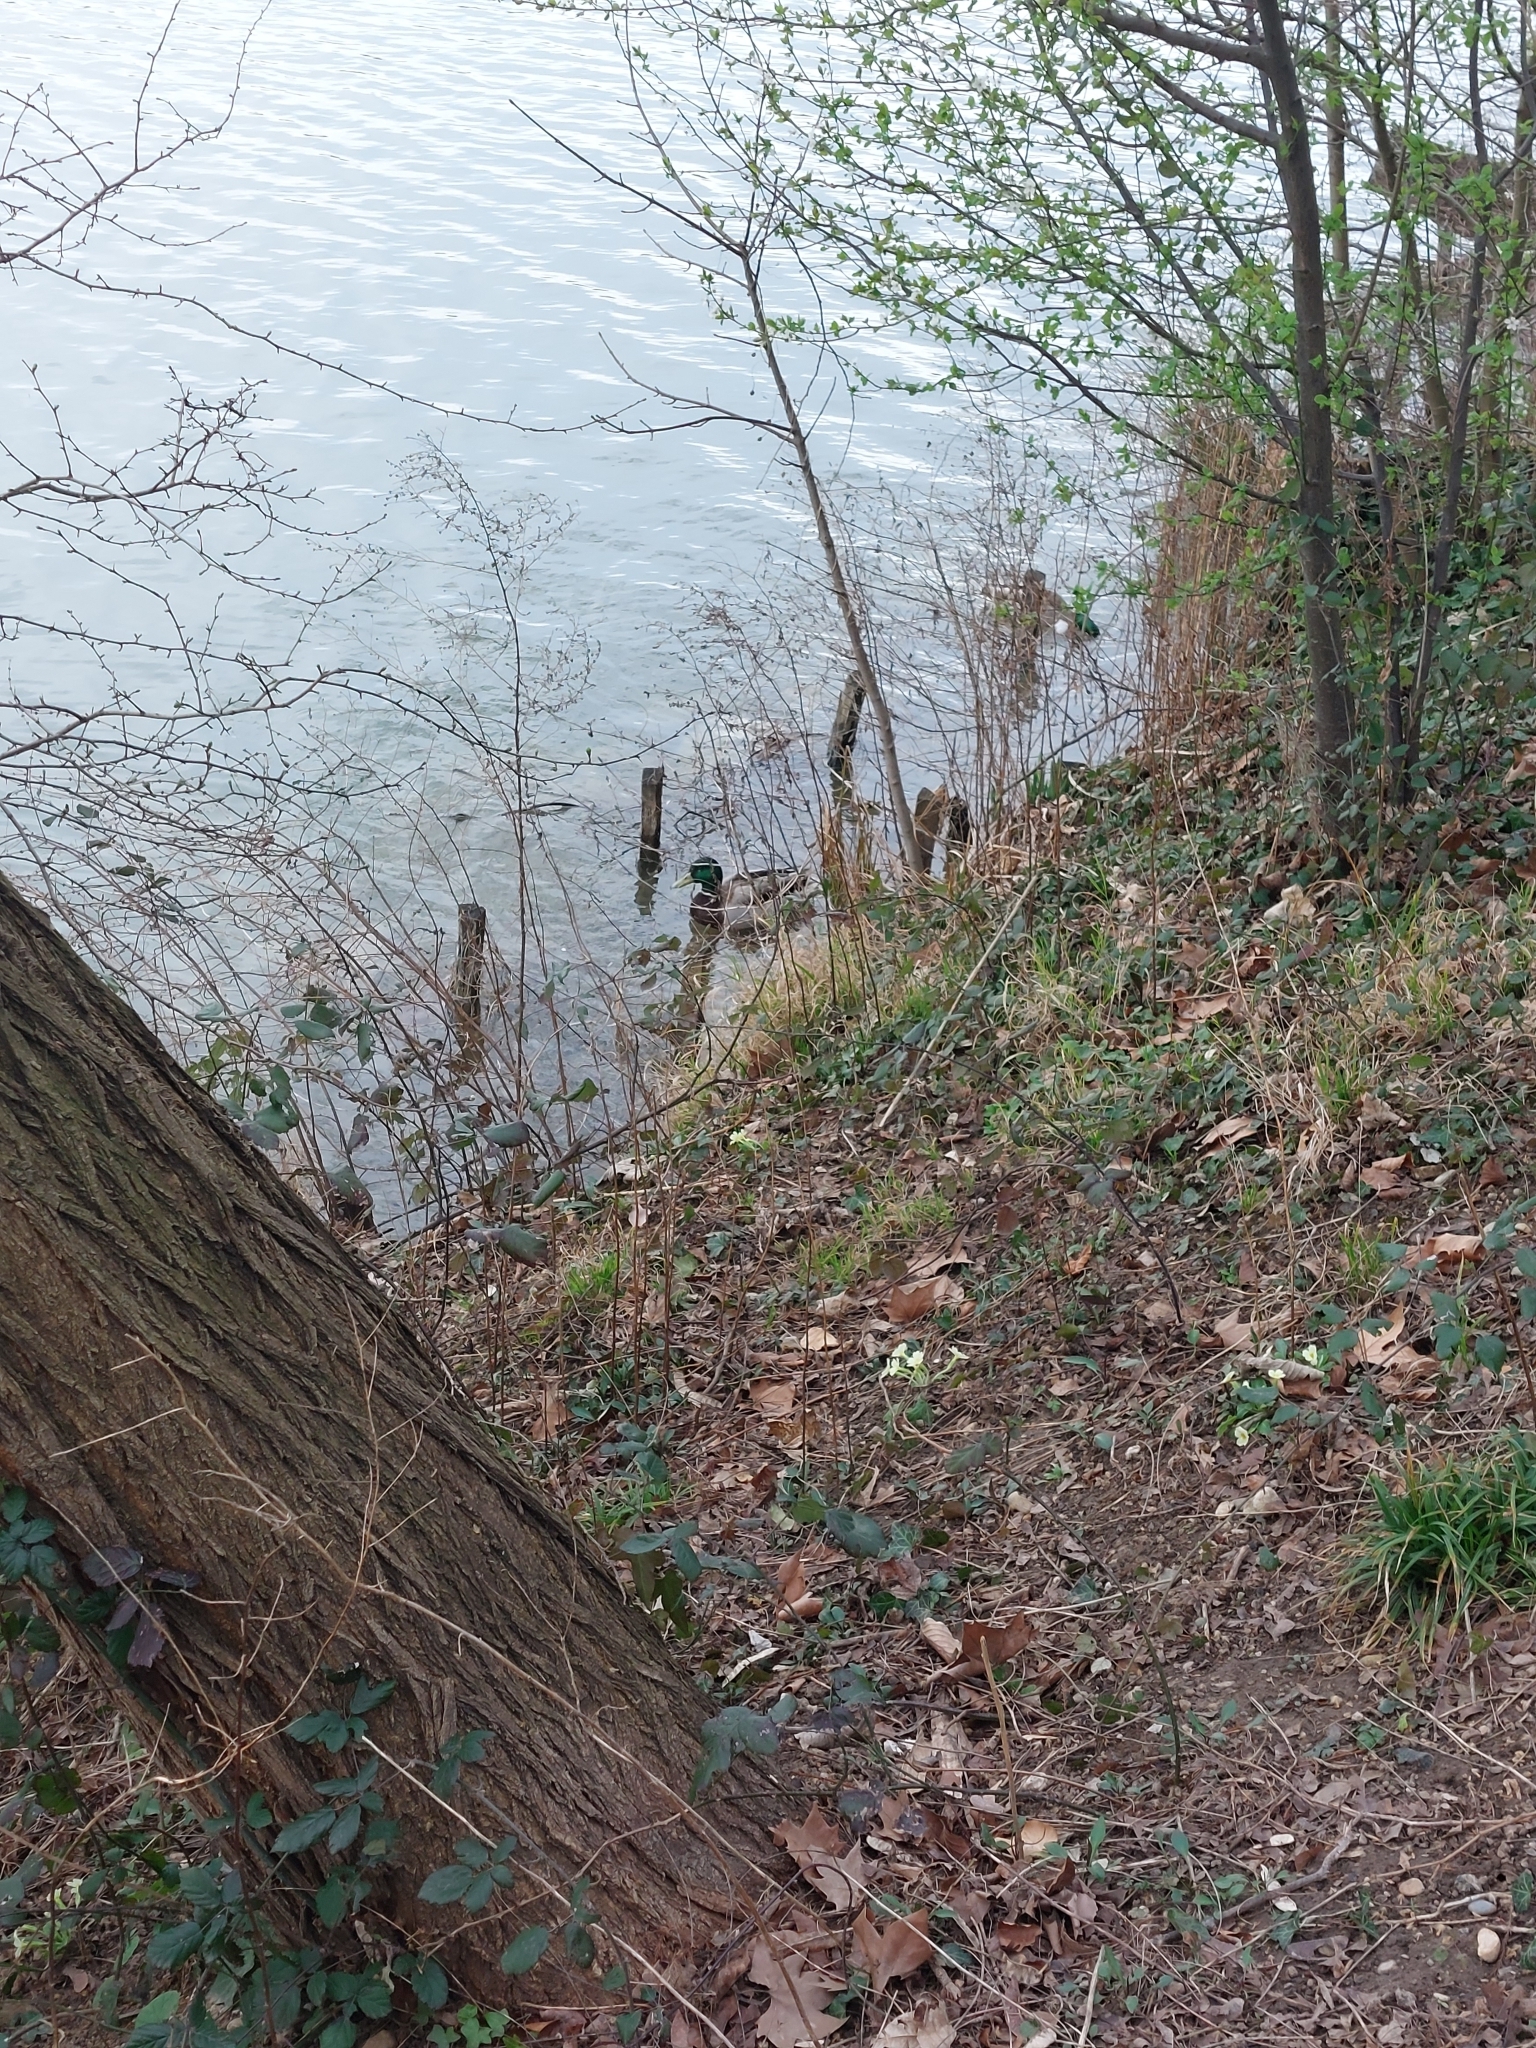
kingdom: Animalia
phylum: Chordata
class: Aves
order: Anseriformes
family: Anatidae
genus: Anas
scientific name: Anas platyrhynchos
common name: Mallard
